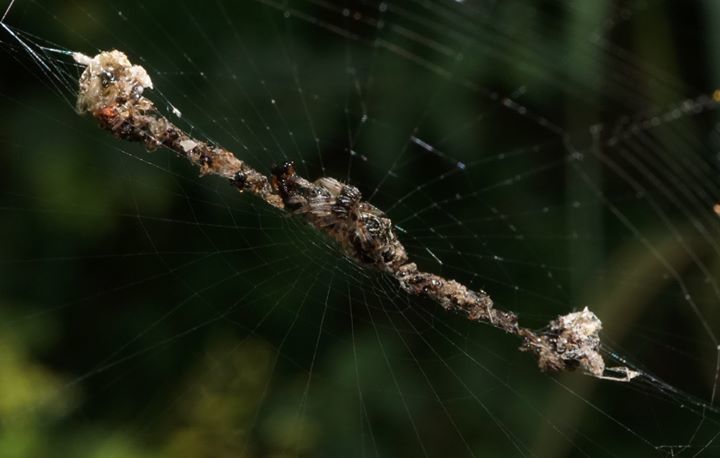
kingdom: Animalia
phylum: Arthropoda
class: Arachnida
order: Araneae
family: Araneidae
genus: Cyclosa
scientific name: Cyclosa walckenaeri
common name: Orb weavers
